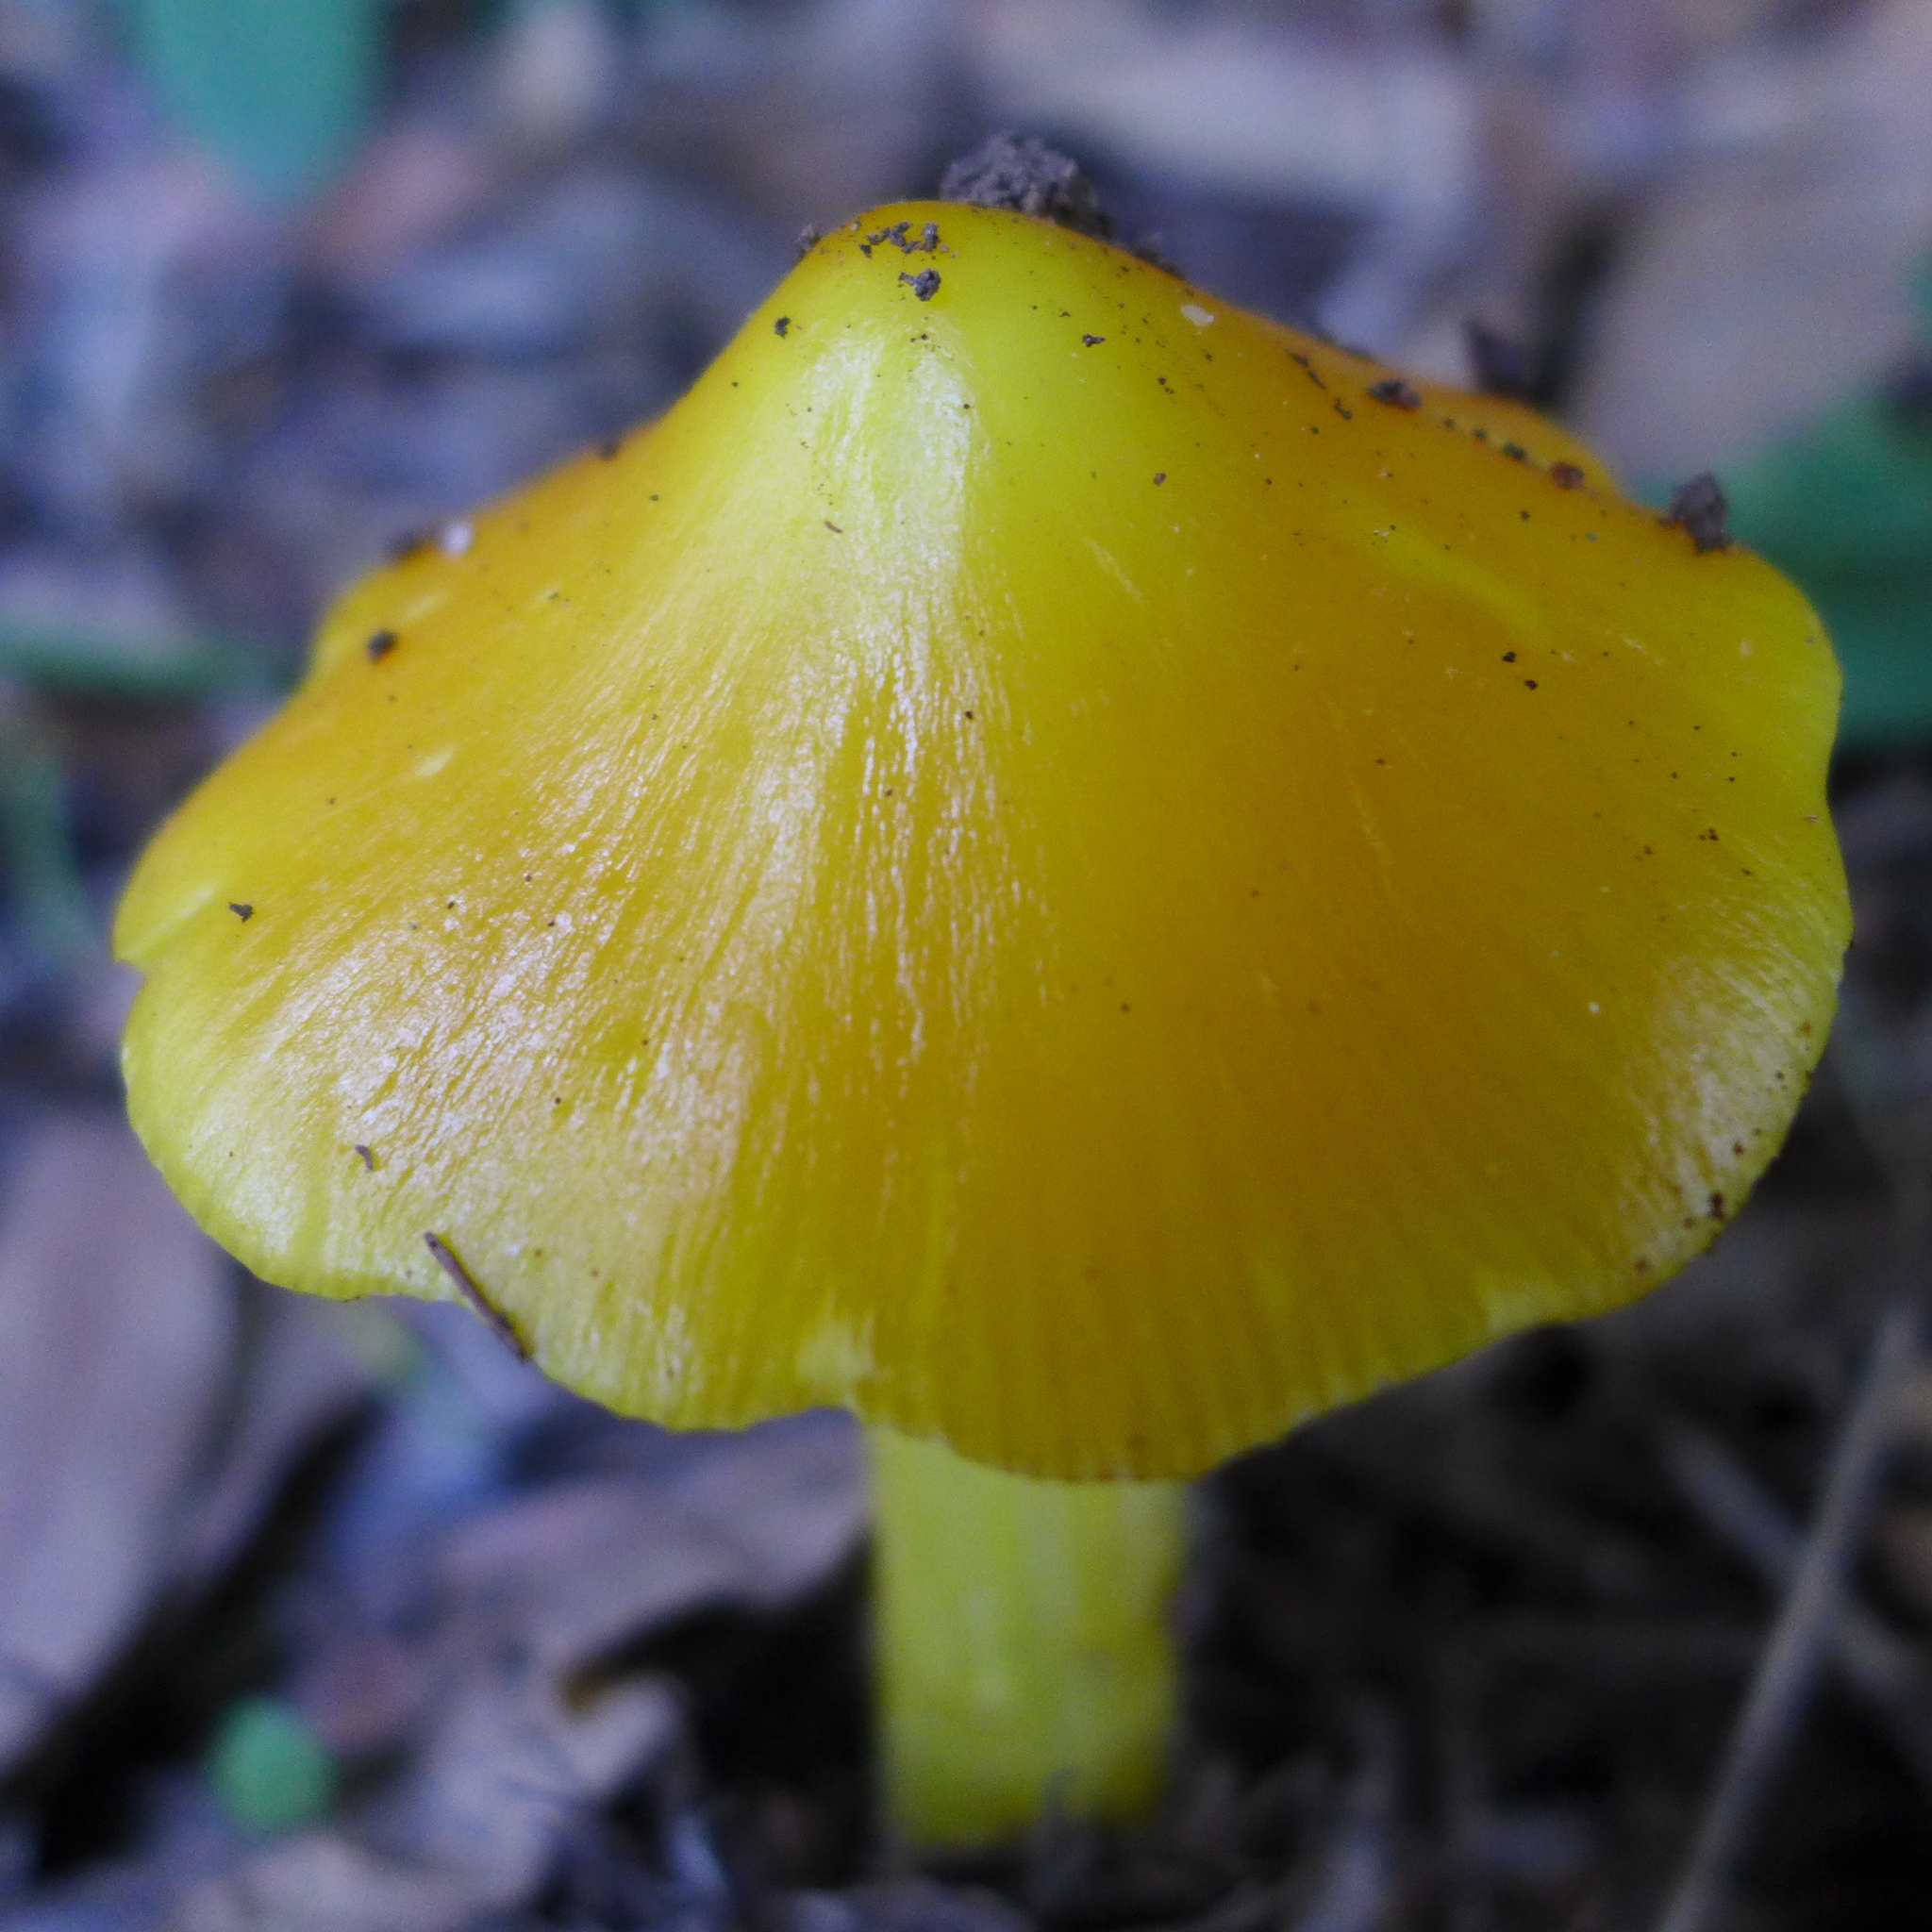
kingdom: Fungi
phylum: Basidiomycota
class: Agaricomycetes
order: Agaricales
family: Hygrophoraceae
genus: Hygrocybe
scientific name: Hygrocybe flavescens
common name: Golden waxy cap
